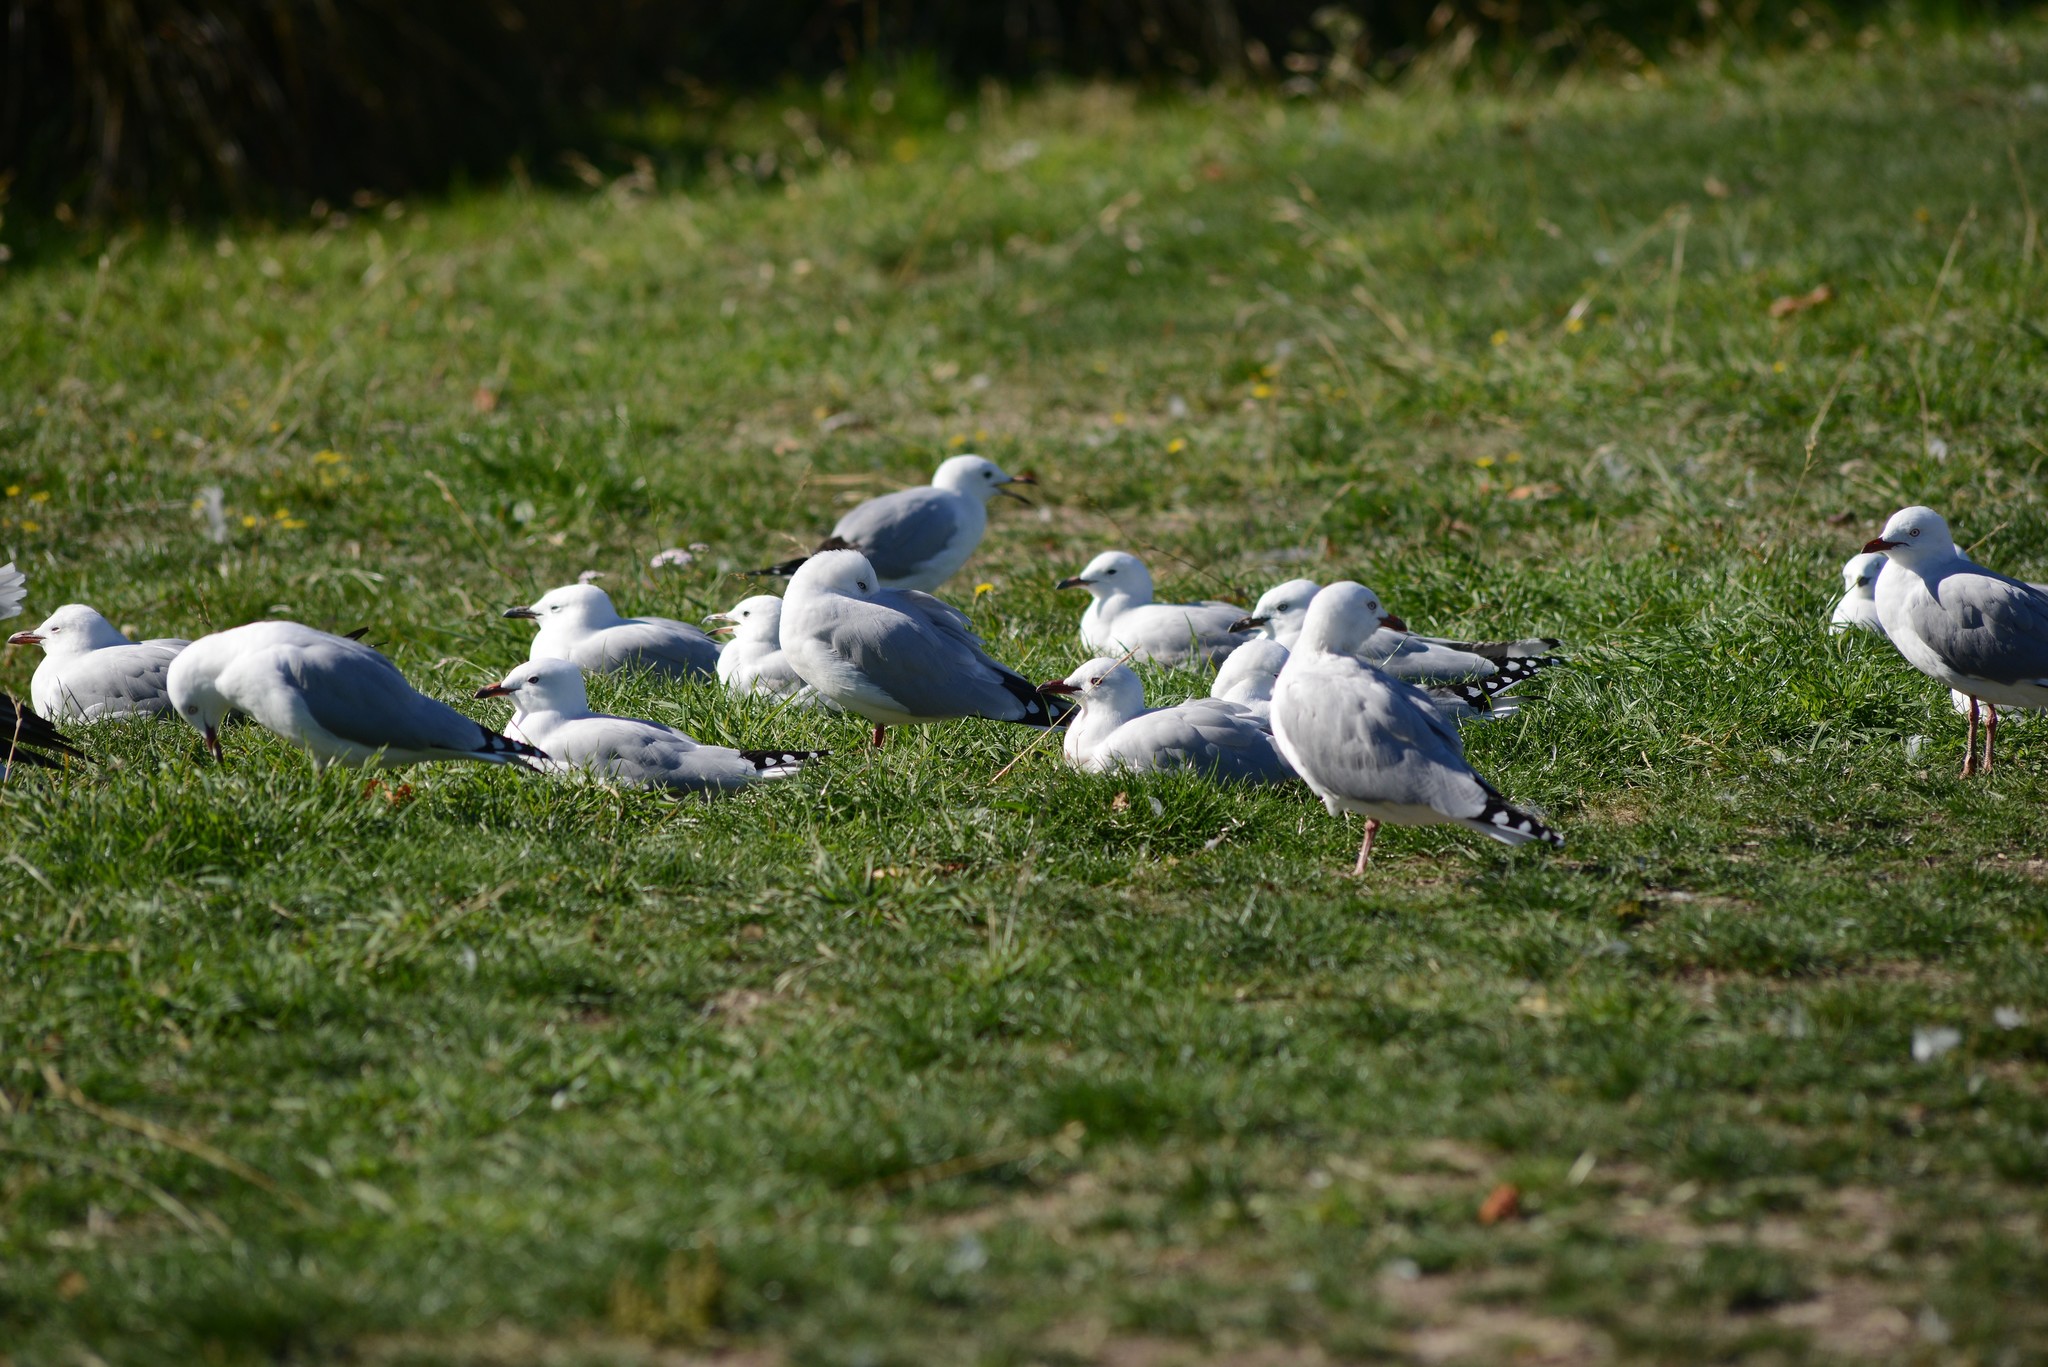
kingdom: Animalia
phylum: Chordata
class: Aves
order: Charadriiformes
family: Laridae
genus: Chroicocephalus
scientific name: Chroicocephalus novaehollandiae
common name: Silver gull
